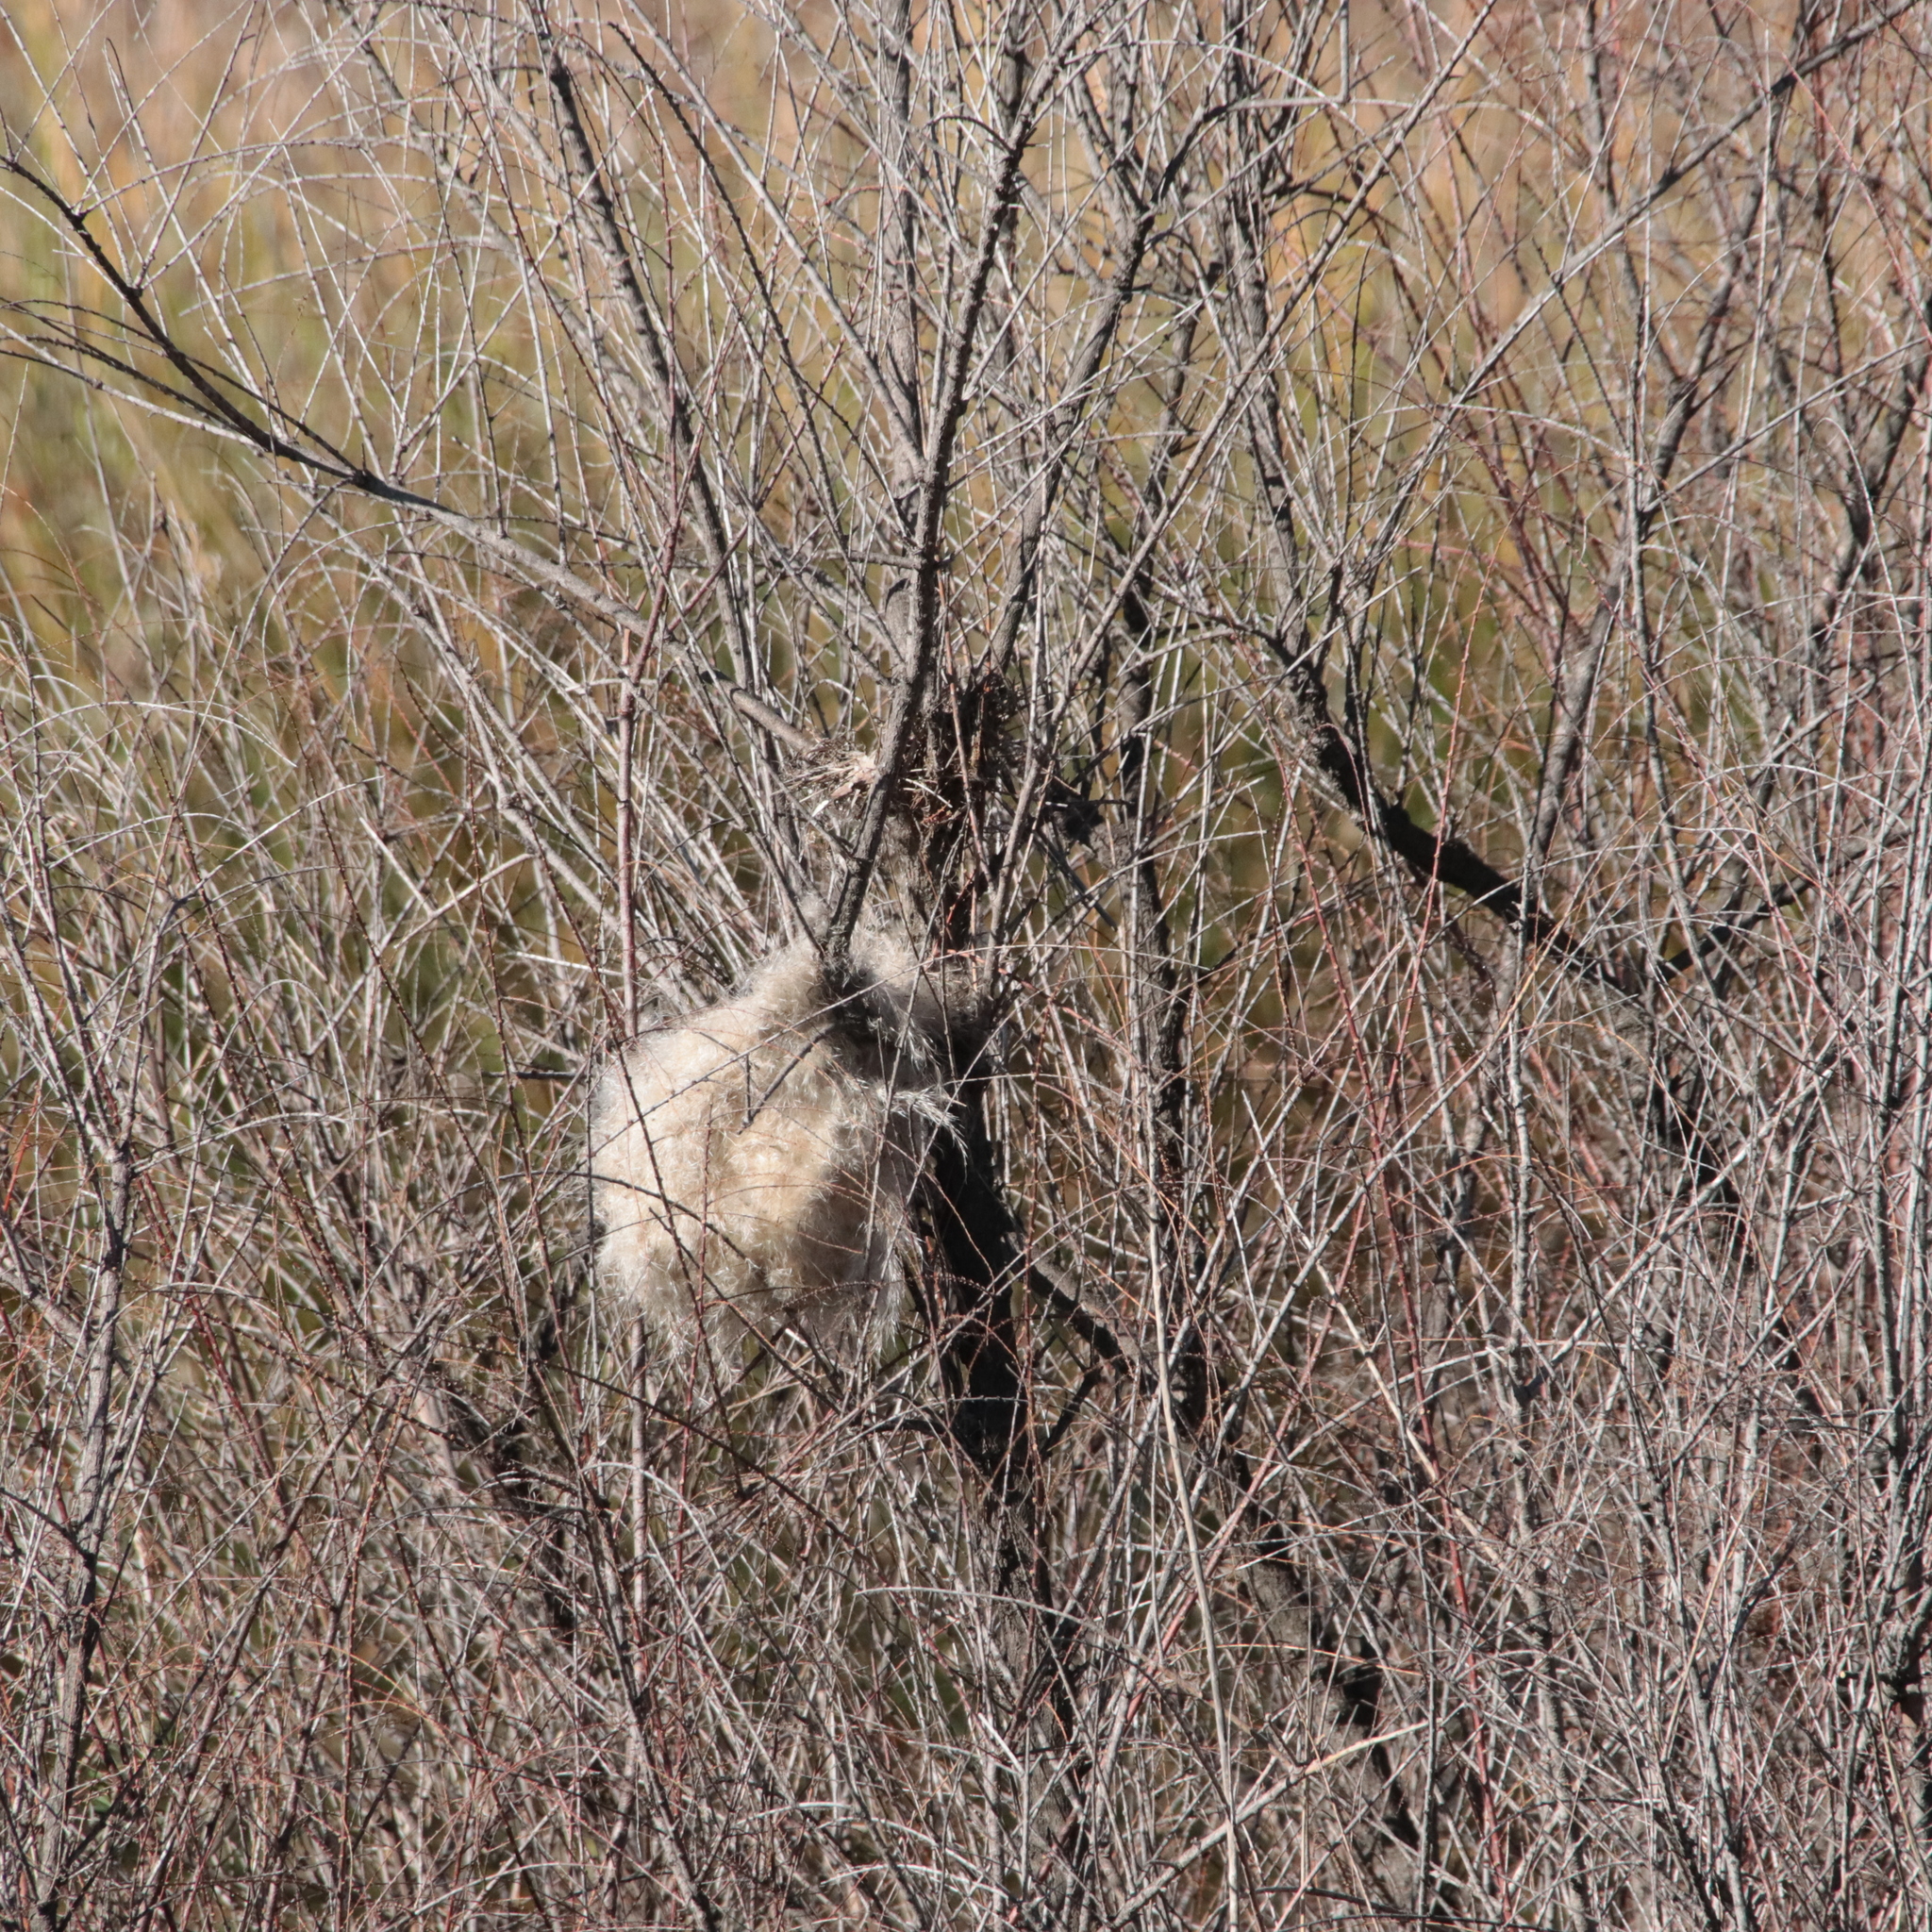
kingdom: Animalia
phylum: Chordata
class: Aves
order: Passeriformes
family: Estrildidae
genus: Lonchura
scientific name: Lonchura punctulata
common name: Scaly-breasted munia
